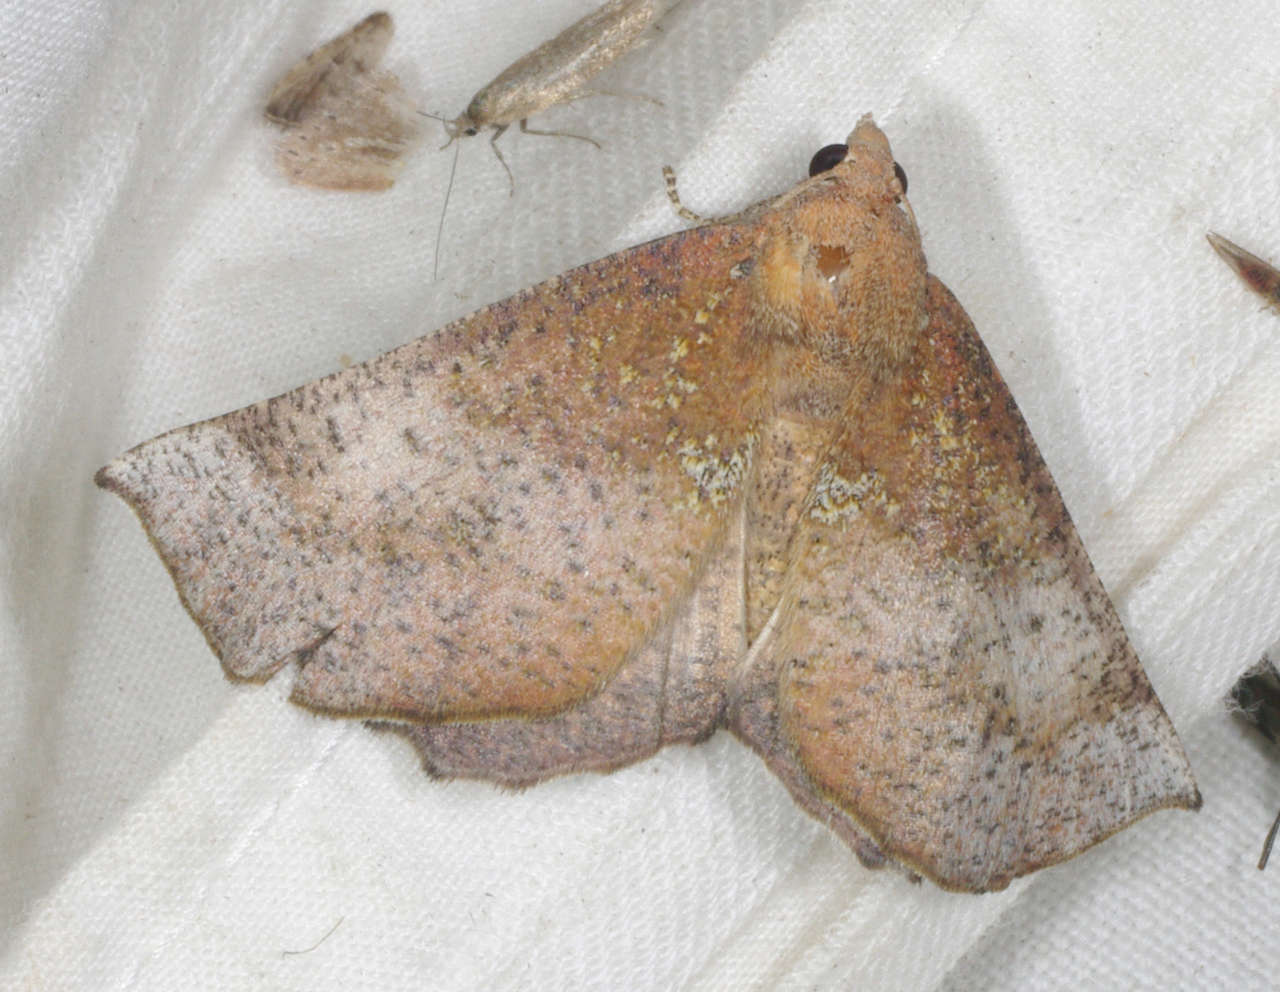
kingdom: Animalia
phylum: Arthropoda
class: Insecta
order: Lepidoptera
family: Geometridae
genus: Mnesampela
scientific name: Mnesampela comarcha
